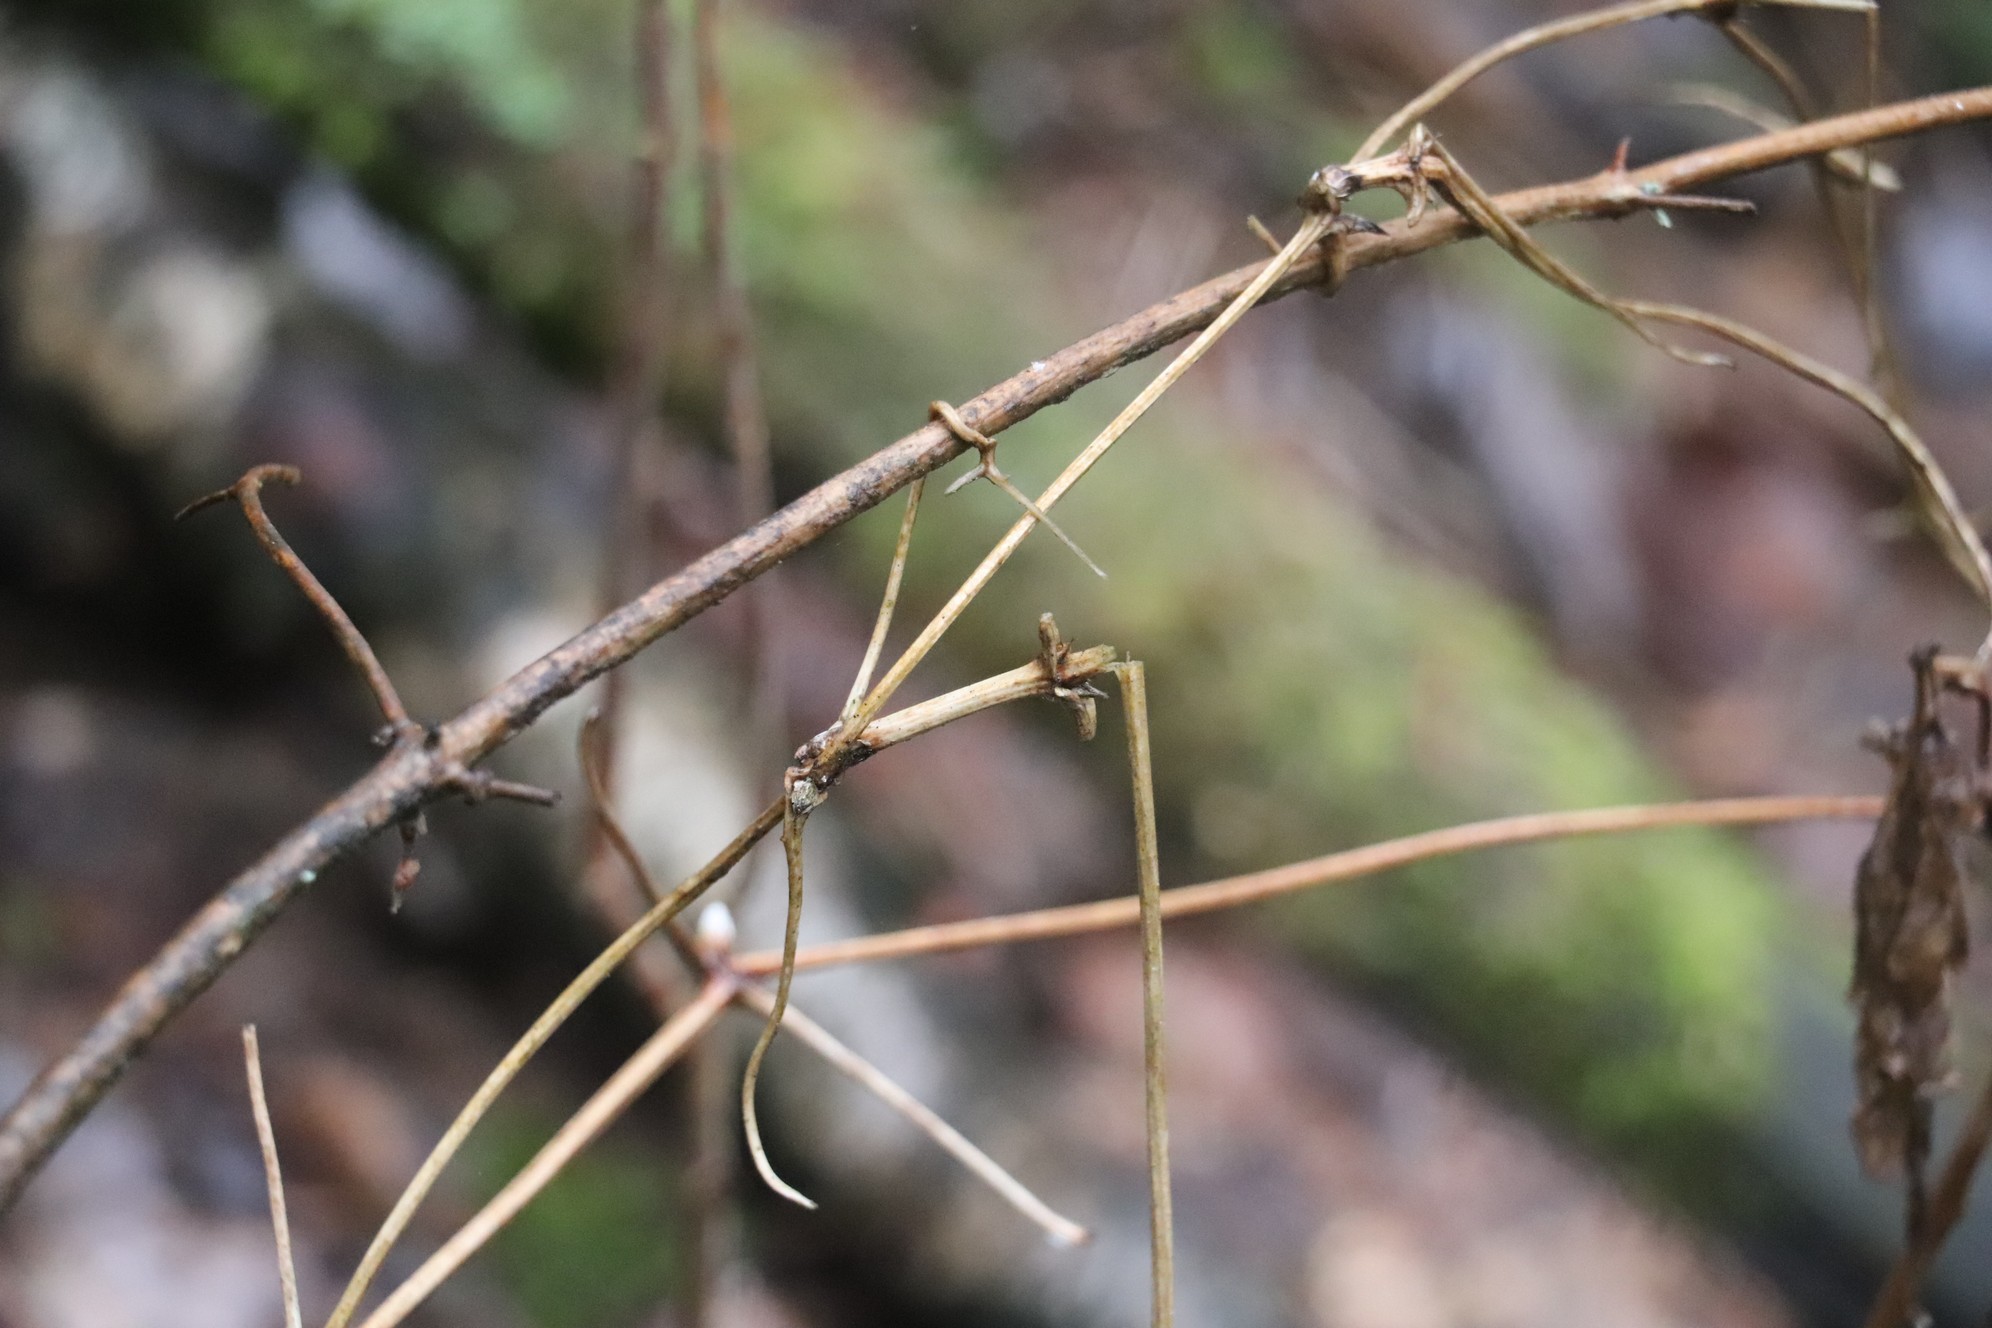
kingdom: Plantae
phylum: Tracheophyta
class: Magnoliopsida
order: Ranunculales
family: Ranunculaceae
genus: Clematis
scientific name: Clematis sibirica
